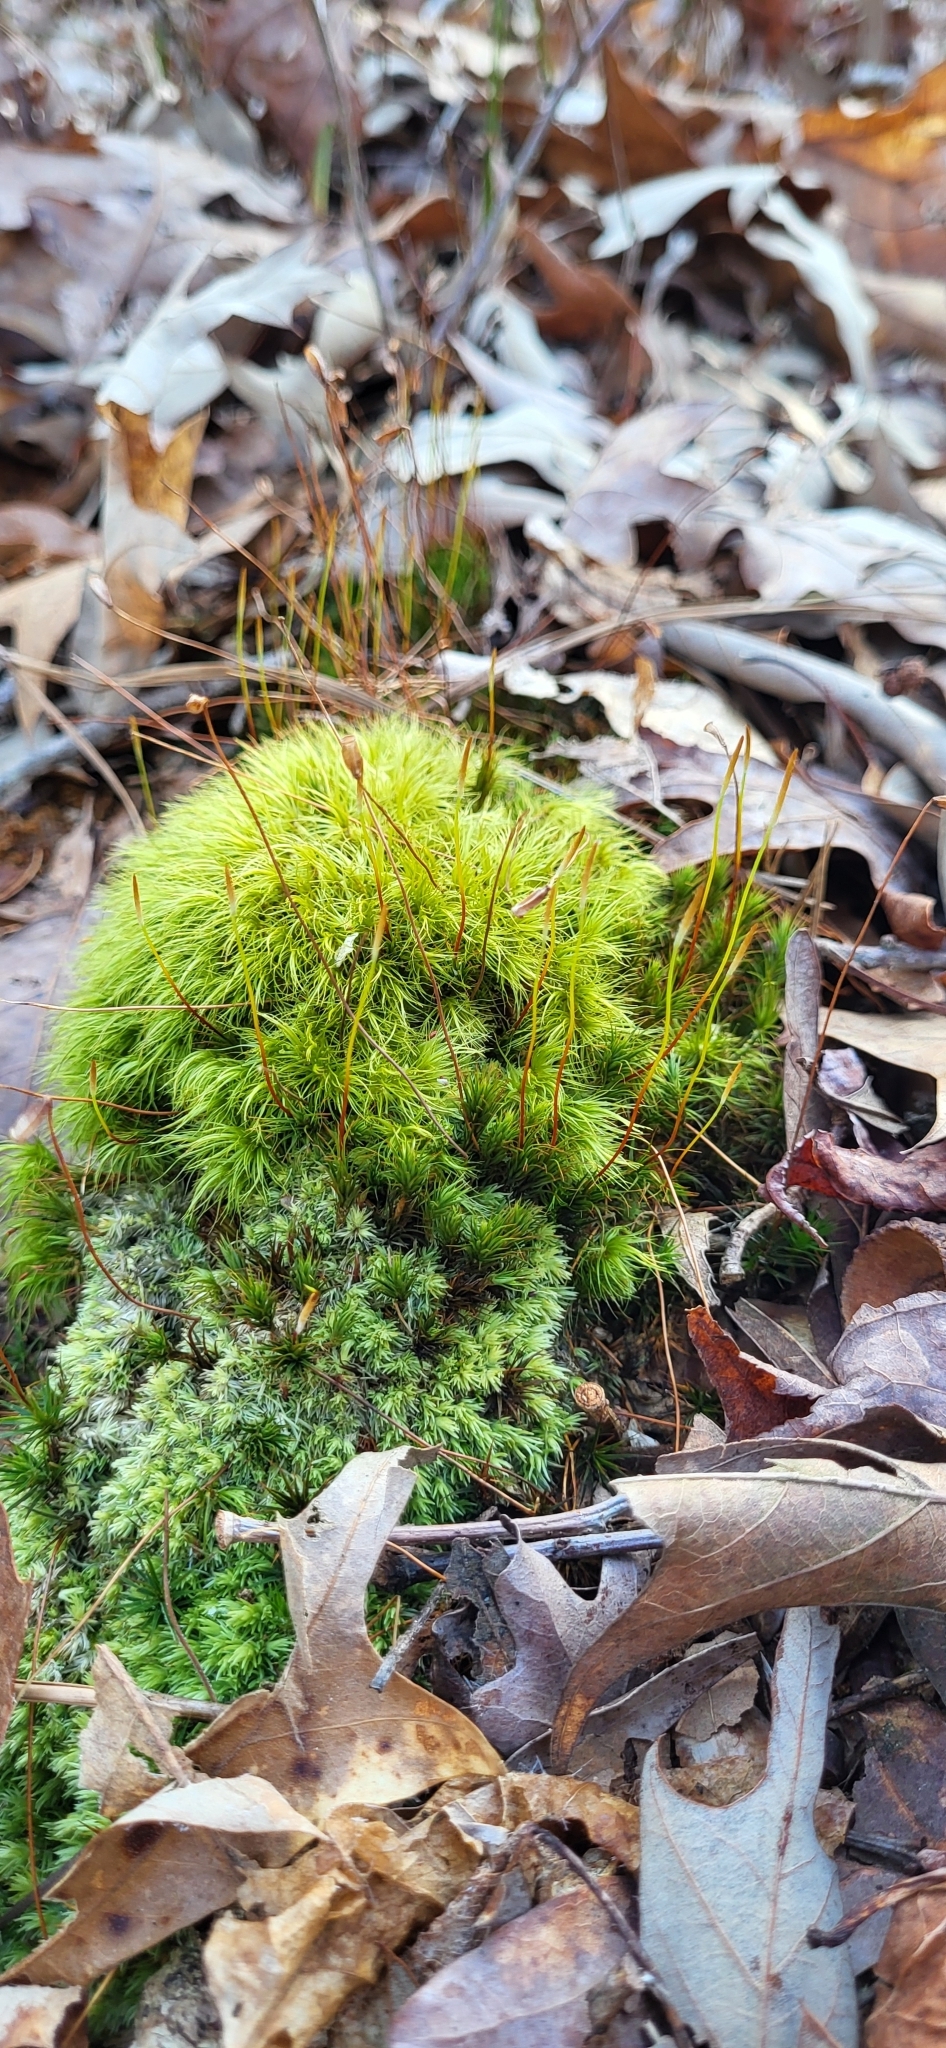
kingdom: Plantae
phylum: Bryophyta
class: Bryopsida
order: Dicranales
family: Dicranaceae
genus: Dicranum
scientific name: Dicranum scoparium
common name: Broom fork-moss
